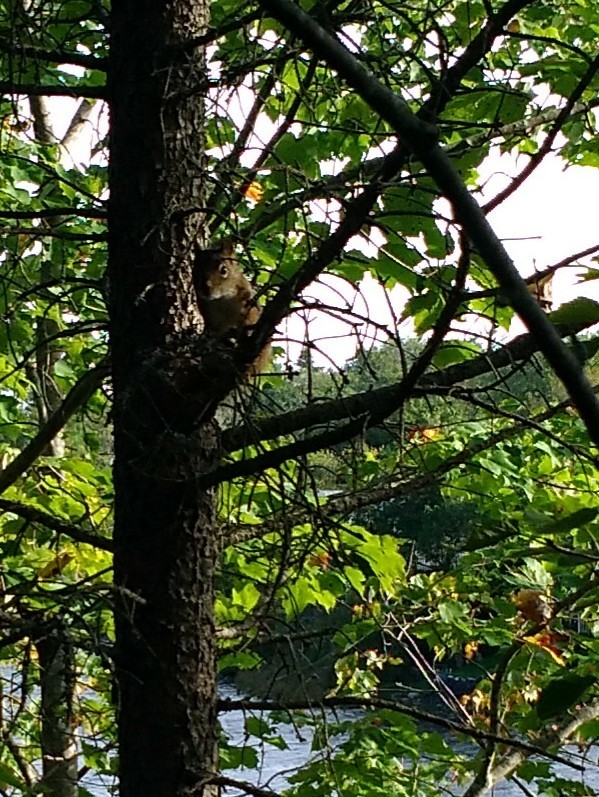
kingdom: Animalia
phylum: Chordata
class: Mammalia
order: Rodentia
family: Sciuridae
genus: Tamiasciurus
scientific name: Tamiasciurus hudsonicus
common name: Red squirrel
